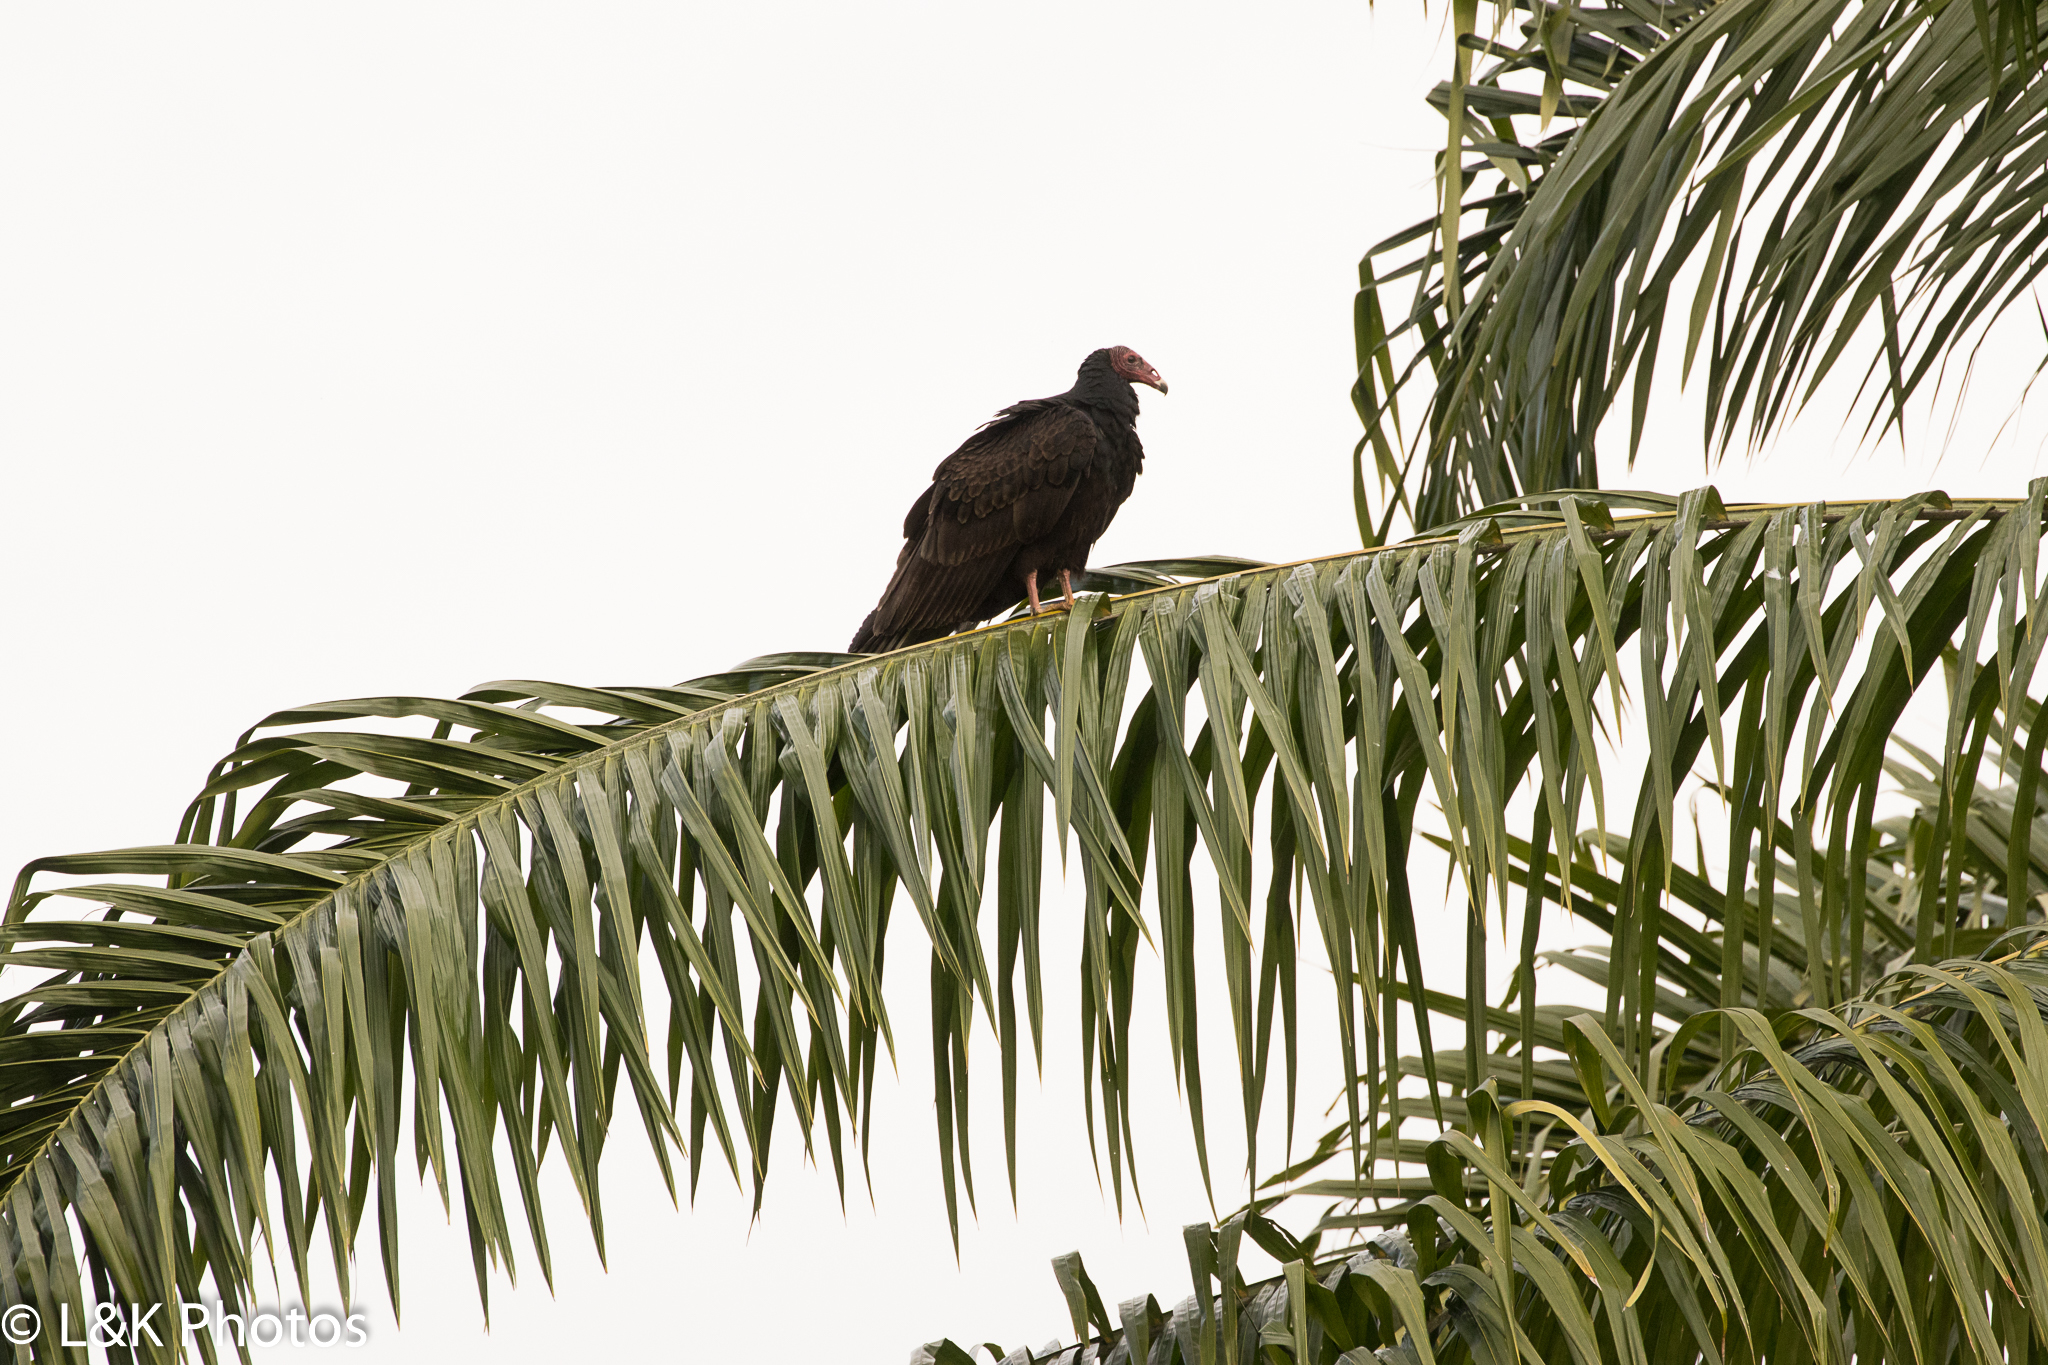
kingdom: Animalia
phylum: Chordata
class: Aves
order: Accipitriformes
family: Cathartidae
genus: Cathartes
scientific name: Cathartes aura
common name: Turkey vulture
